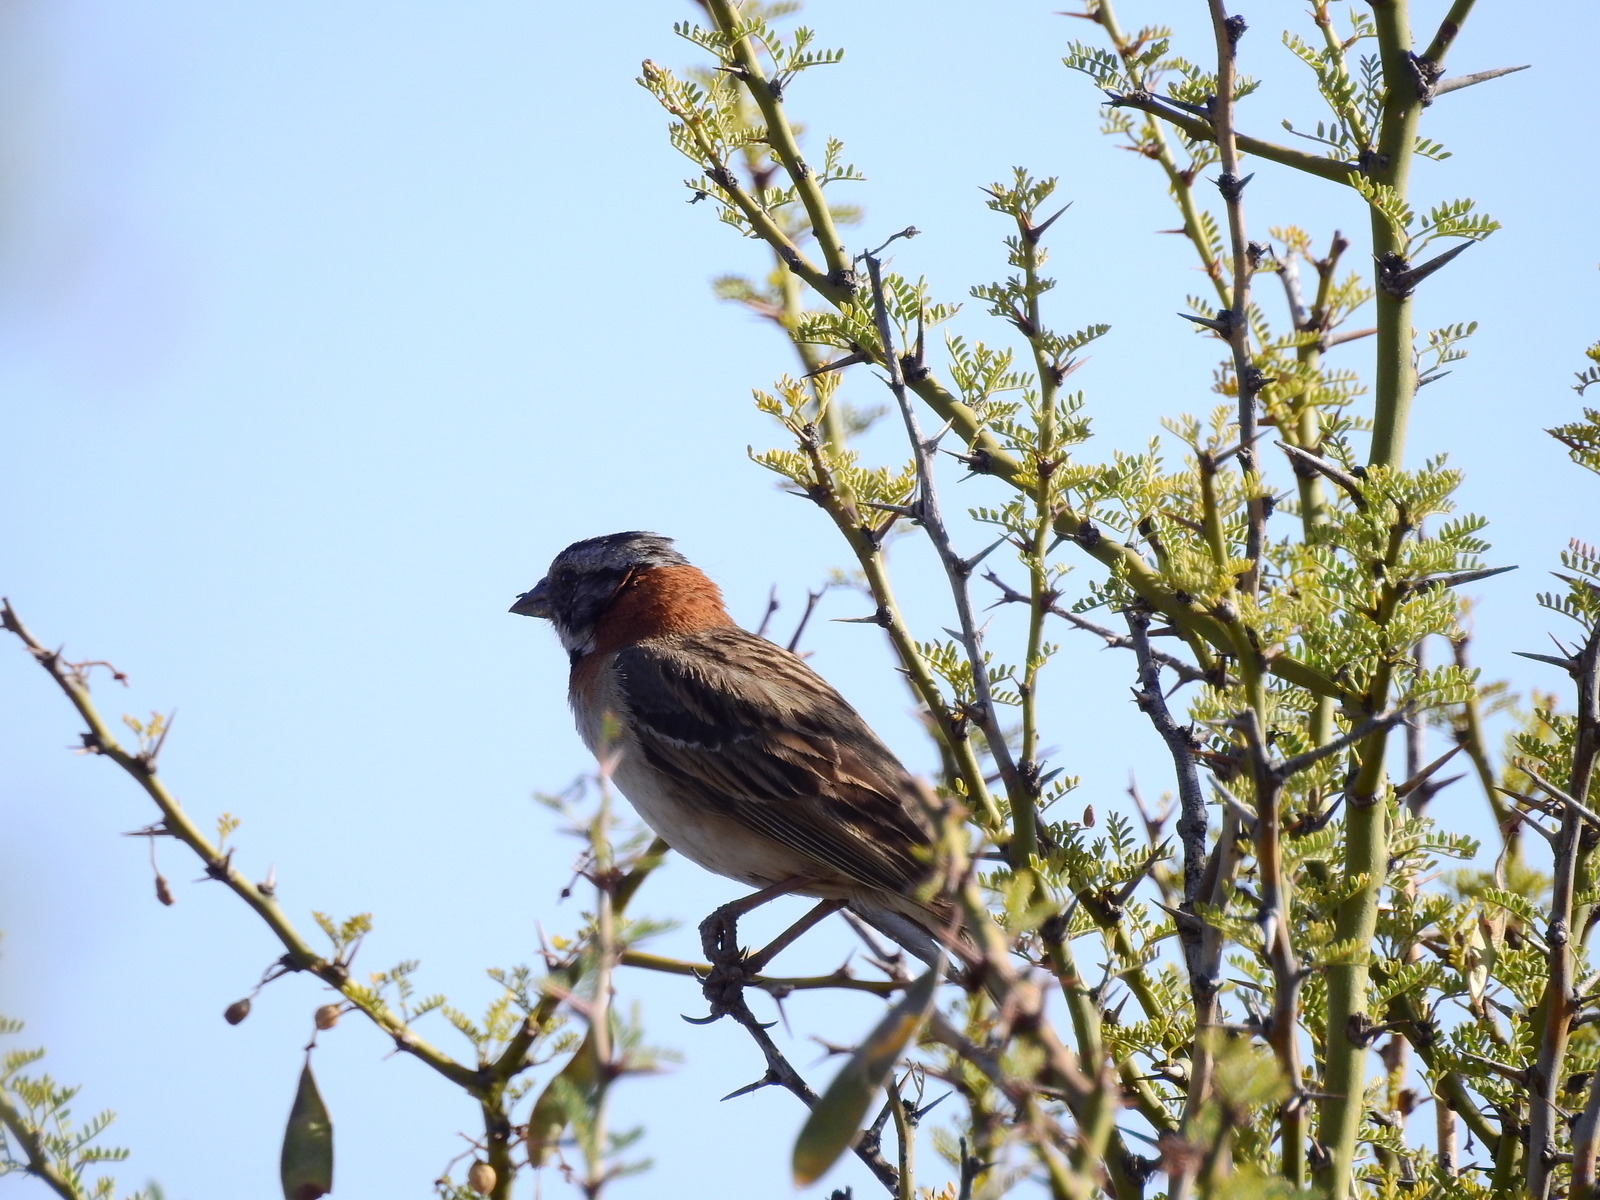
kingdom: Animalia
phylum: Chordata
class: Aves
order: Passeriformes
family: Passerellidae
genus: Zonotrichia
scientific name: Zonotrichia capensis
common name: Rufous-collared sparrow
